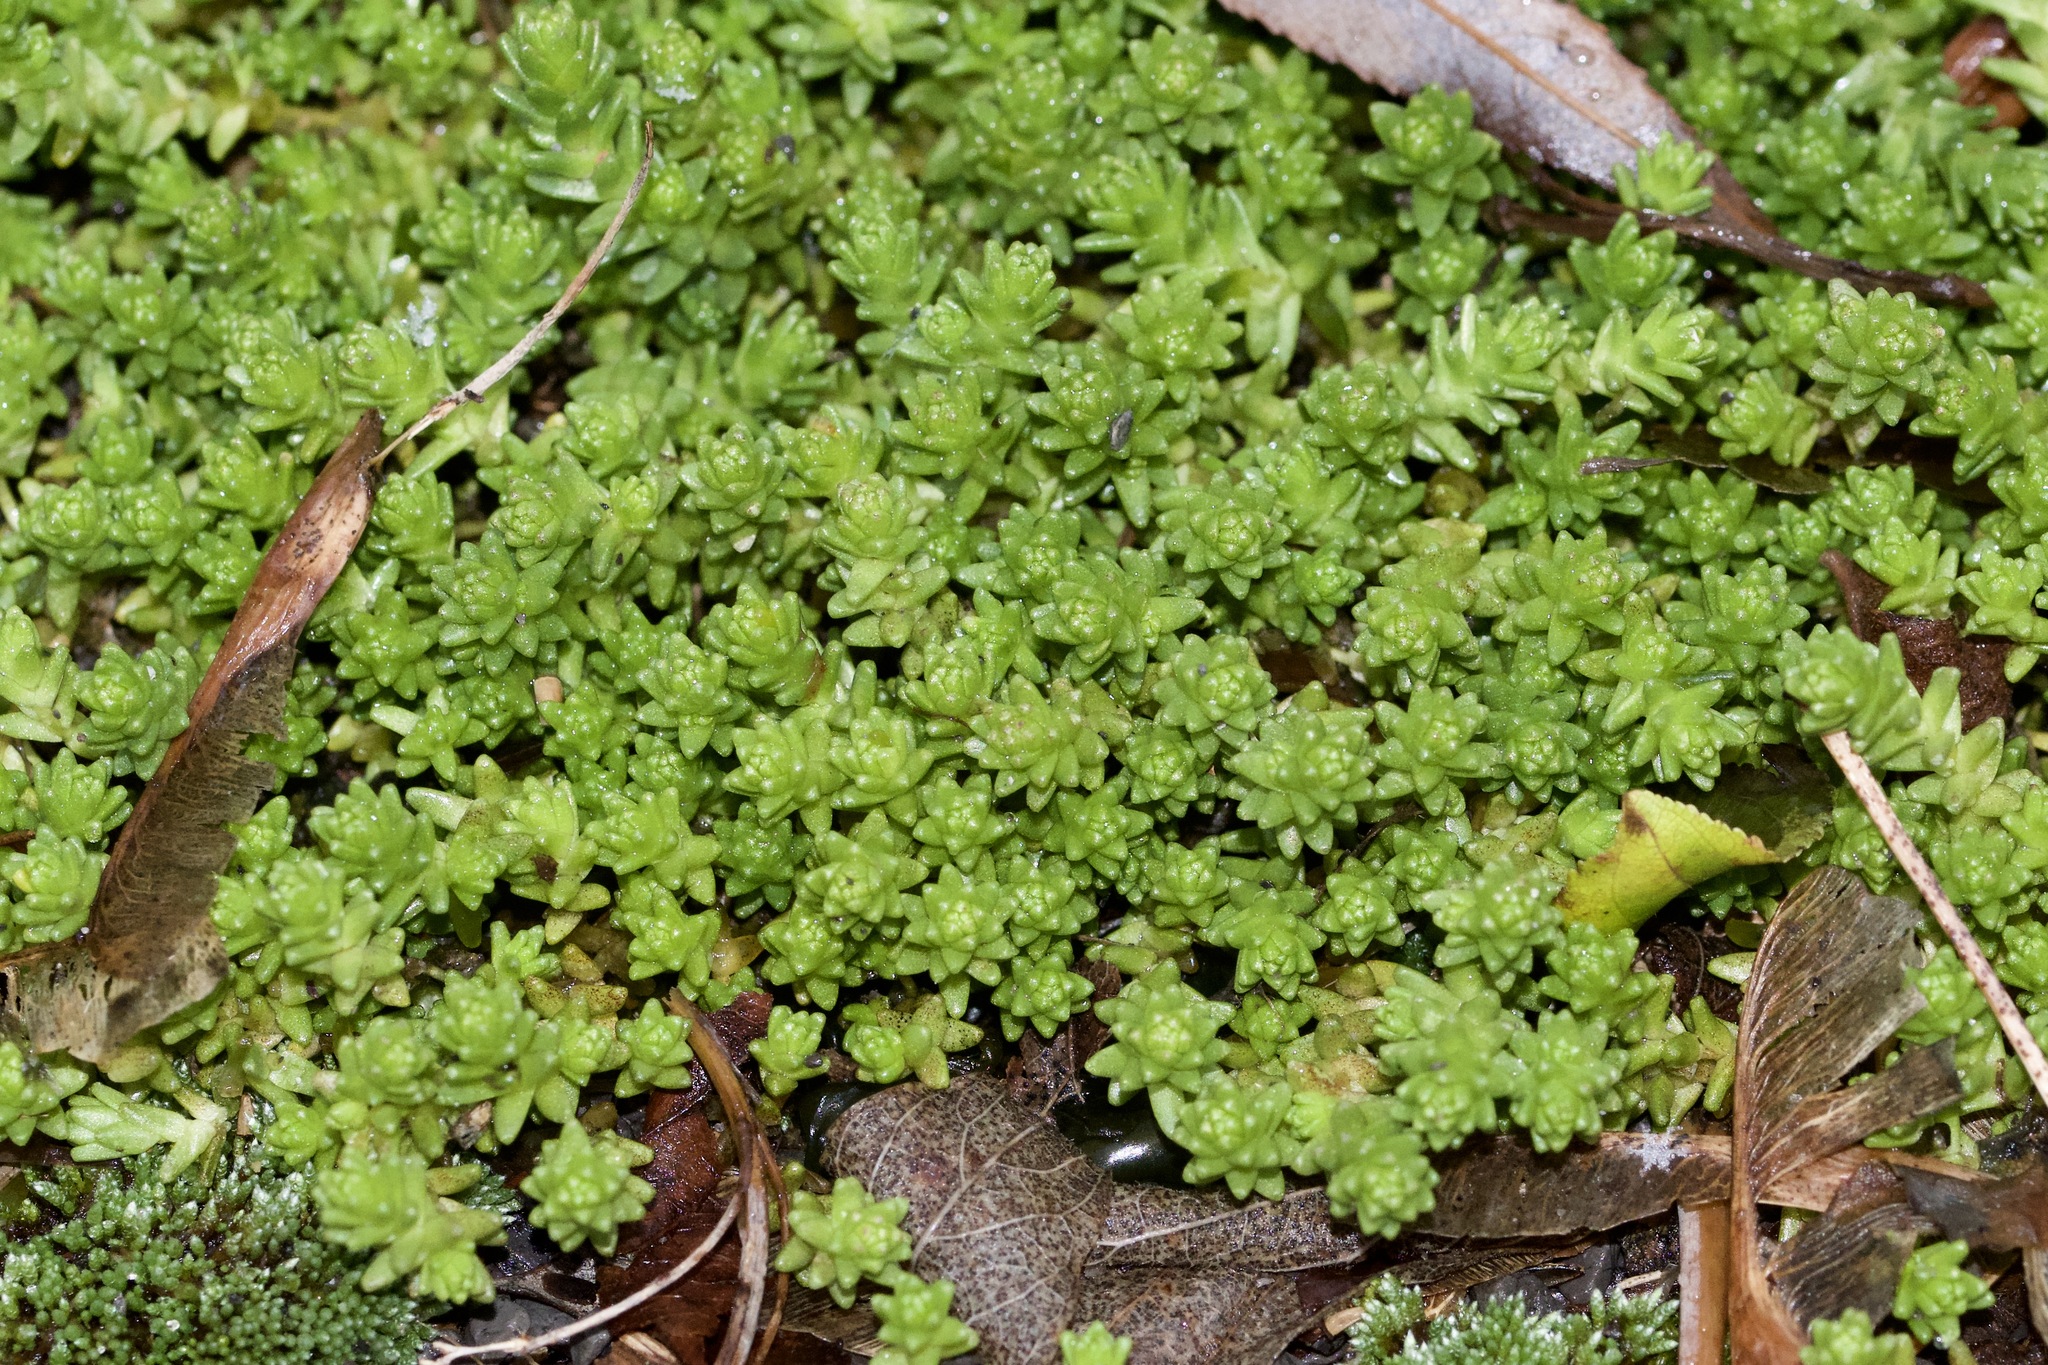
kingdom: Plantae
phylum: Tracheophyta
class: Magnoliopsida
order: Saxifragales
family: Crassulaceae
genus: Sedum
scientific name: Sedum acre
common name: Biting stonecrop
